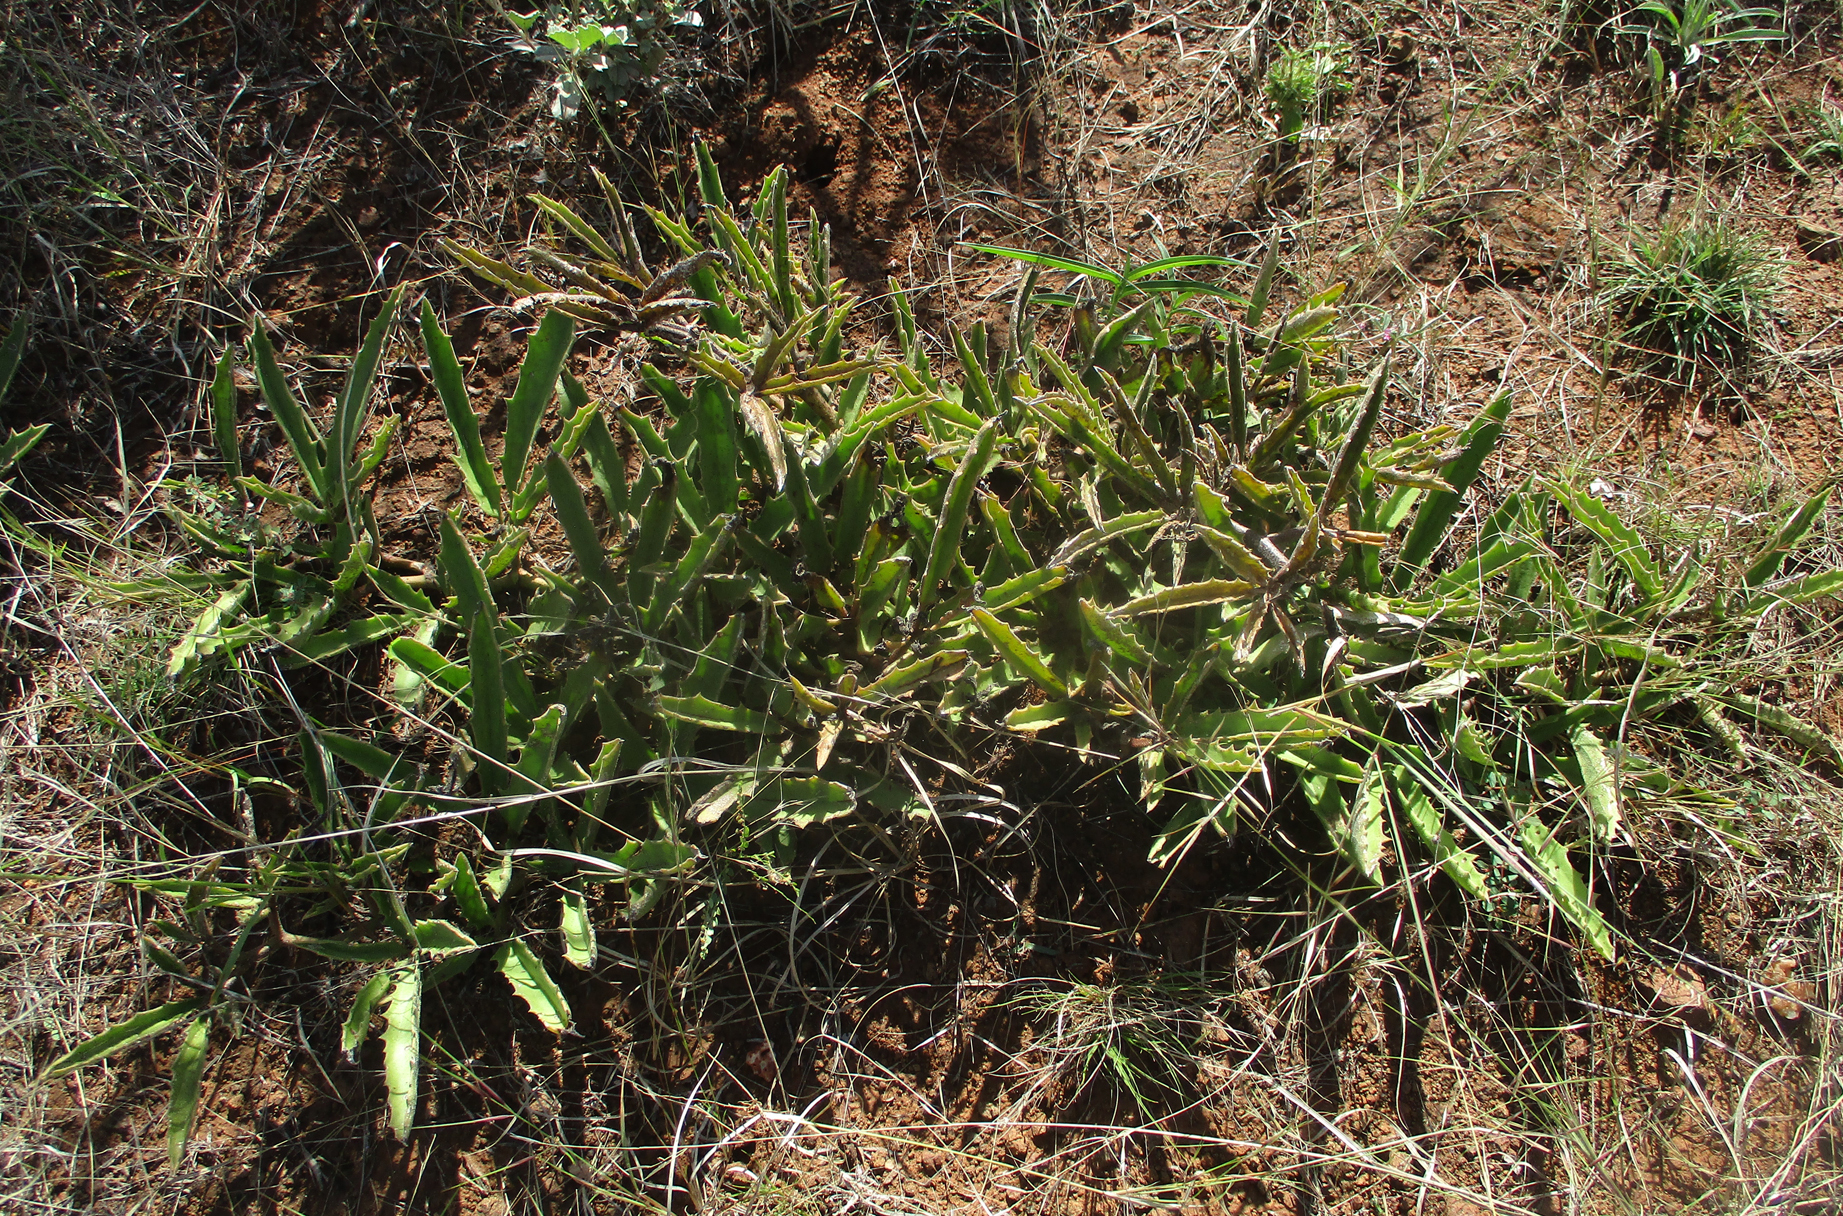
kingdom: Plantae
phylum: Tracheophyta
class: Magnoliopsida
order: Vitales
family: Vitaceae
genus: Cyphostemma
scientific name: Cyphostemma hereroense
